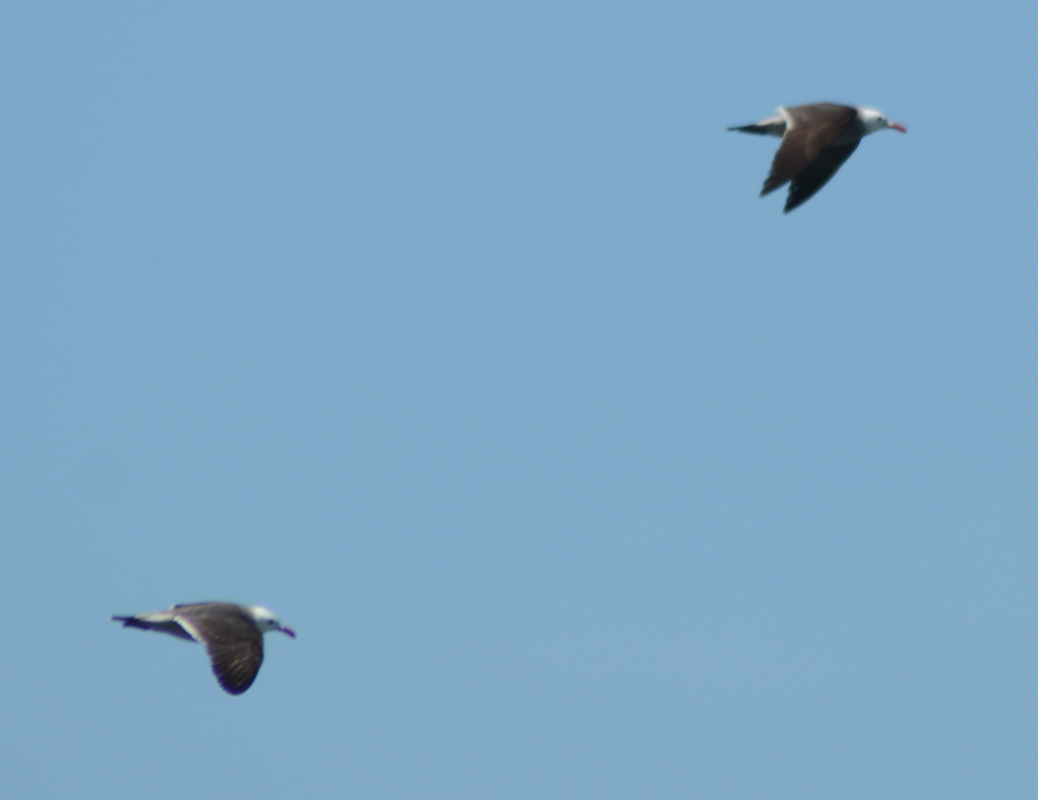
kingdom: Animalia
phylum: Chordata
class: Aves
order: Charadriiformes
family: Laridae
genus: Larus
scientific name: Larus heermanni
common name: Heermann's gull
